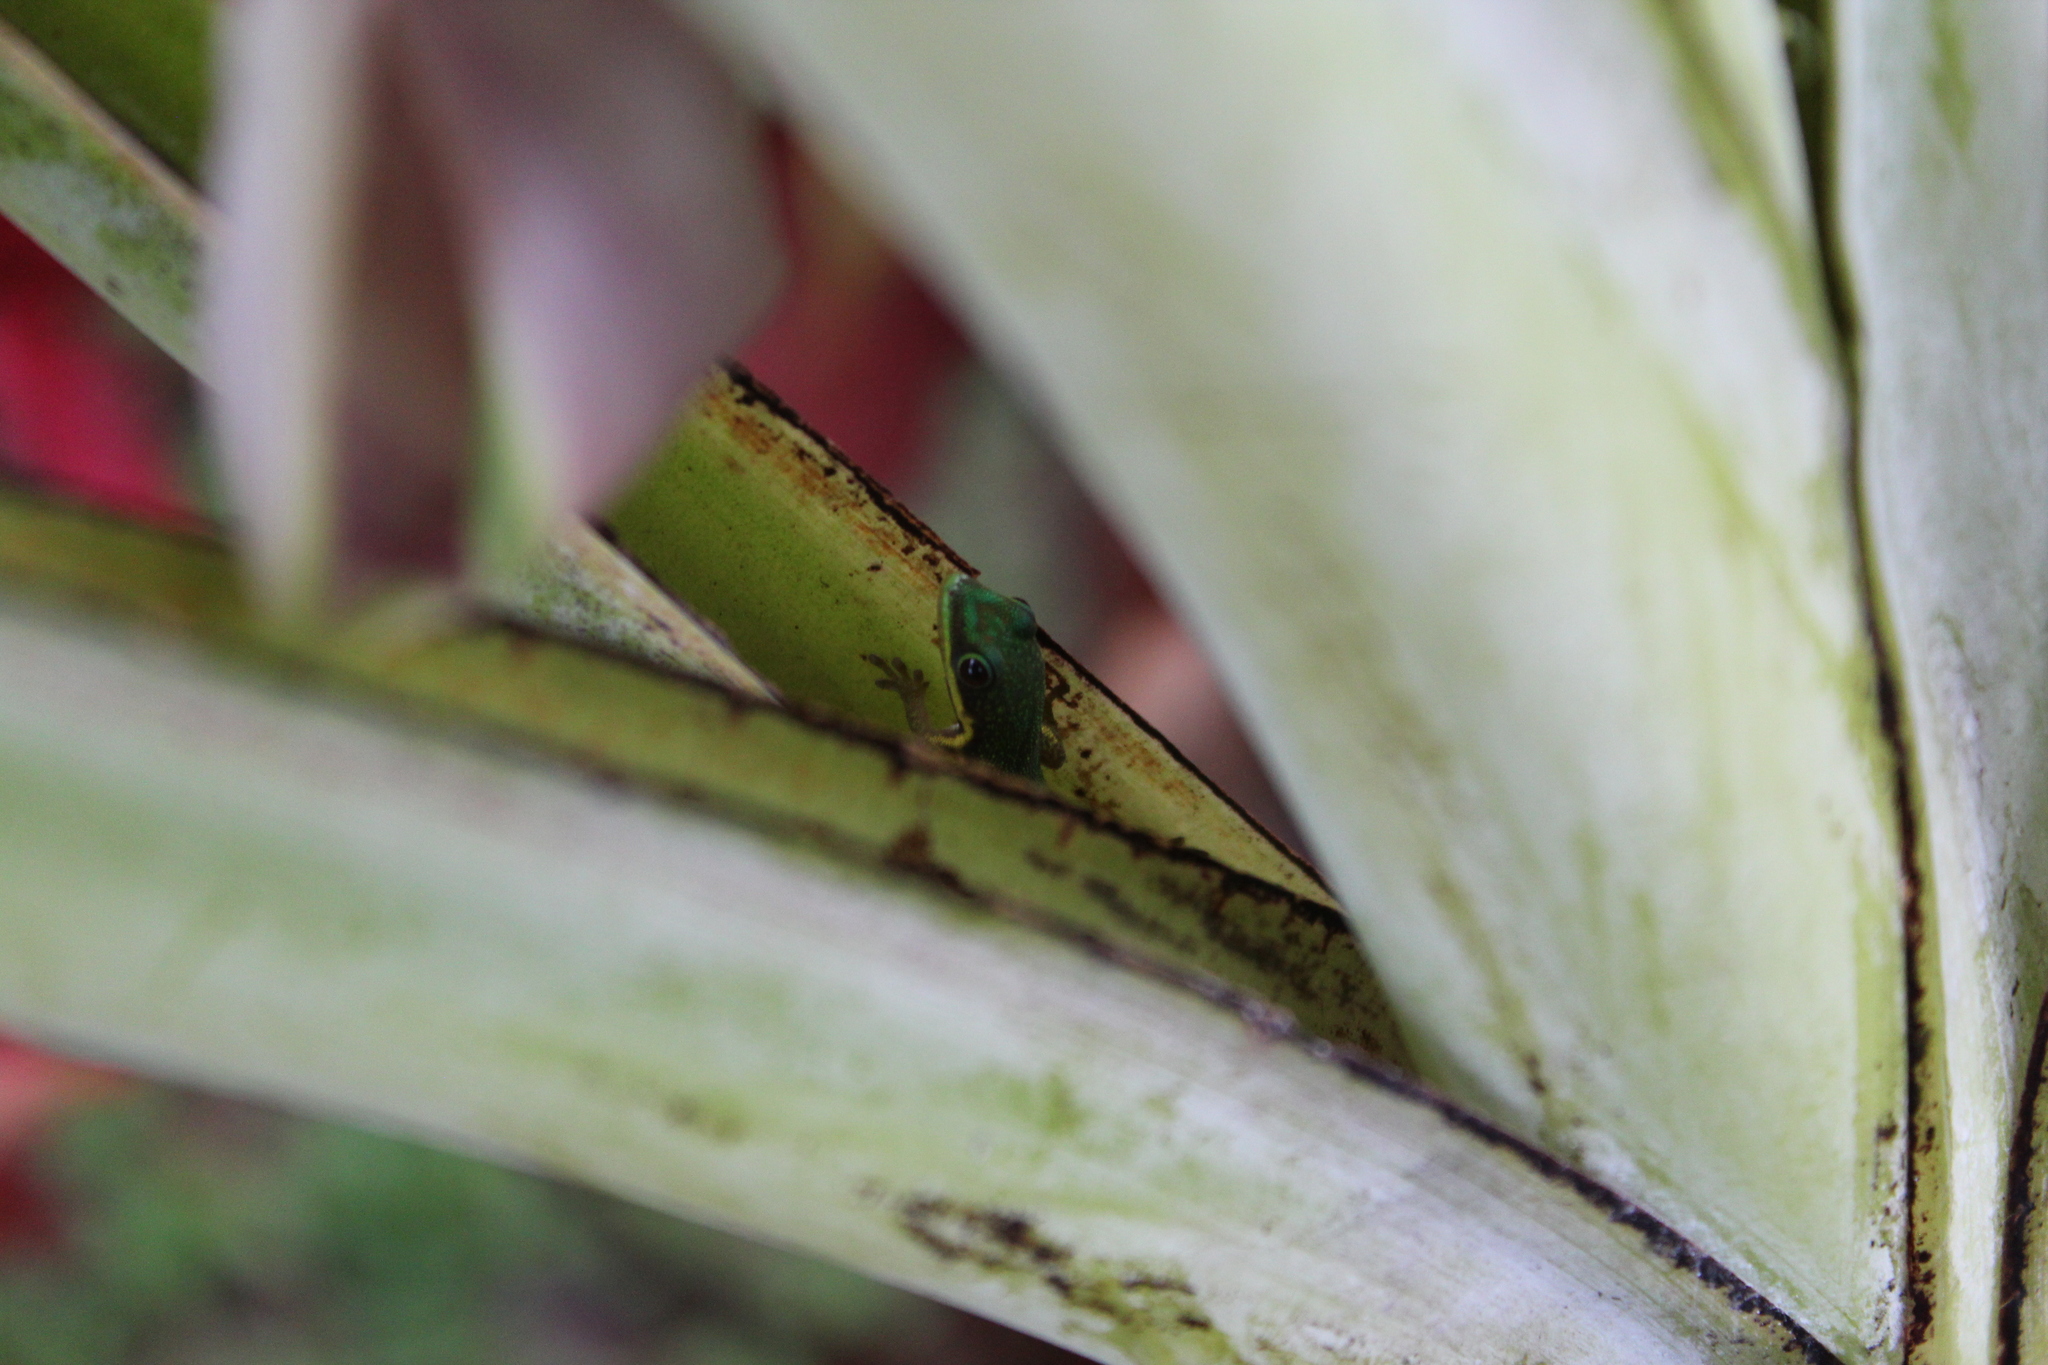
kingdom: Animalia
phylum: Chordata
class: Squamata
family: Gekkonidae
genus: Phelsuma
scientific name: Phelsuma lineata
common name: Lined day gecko
